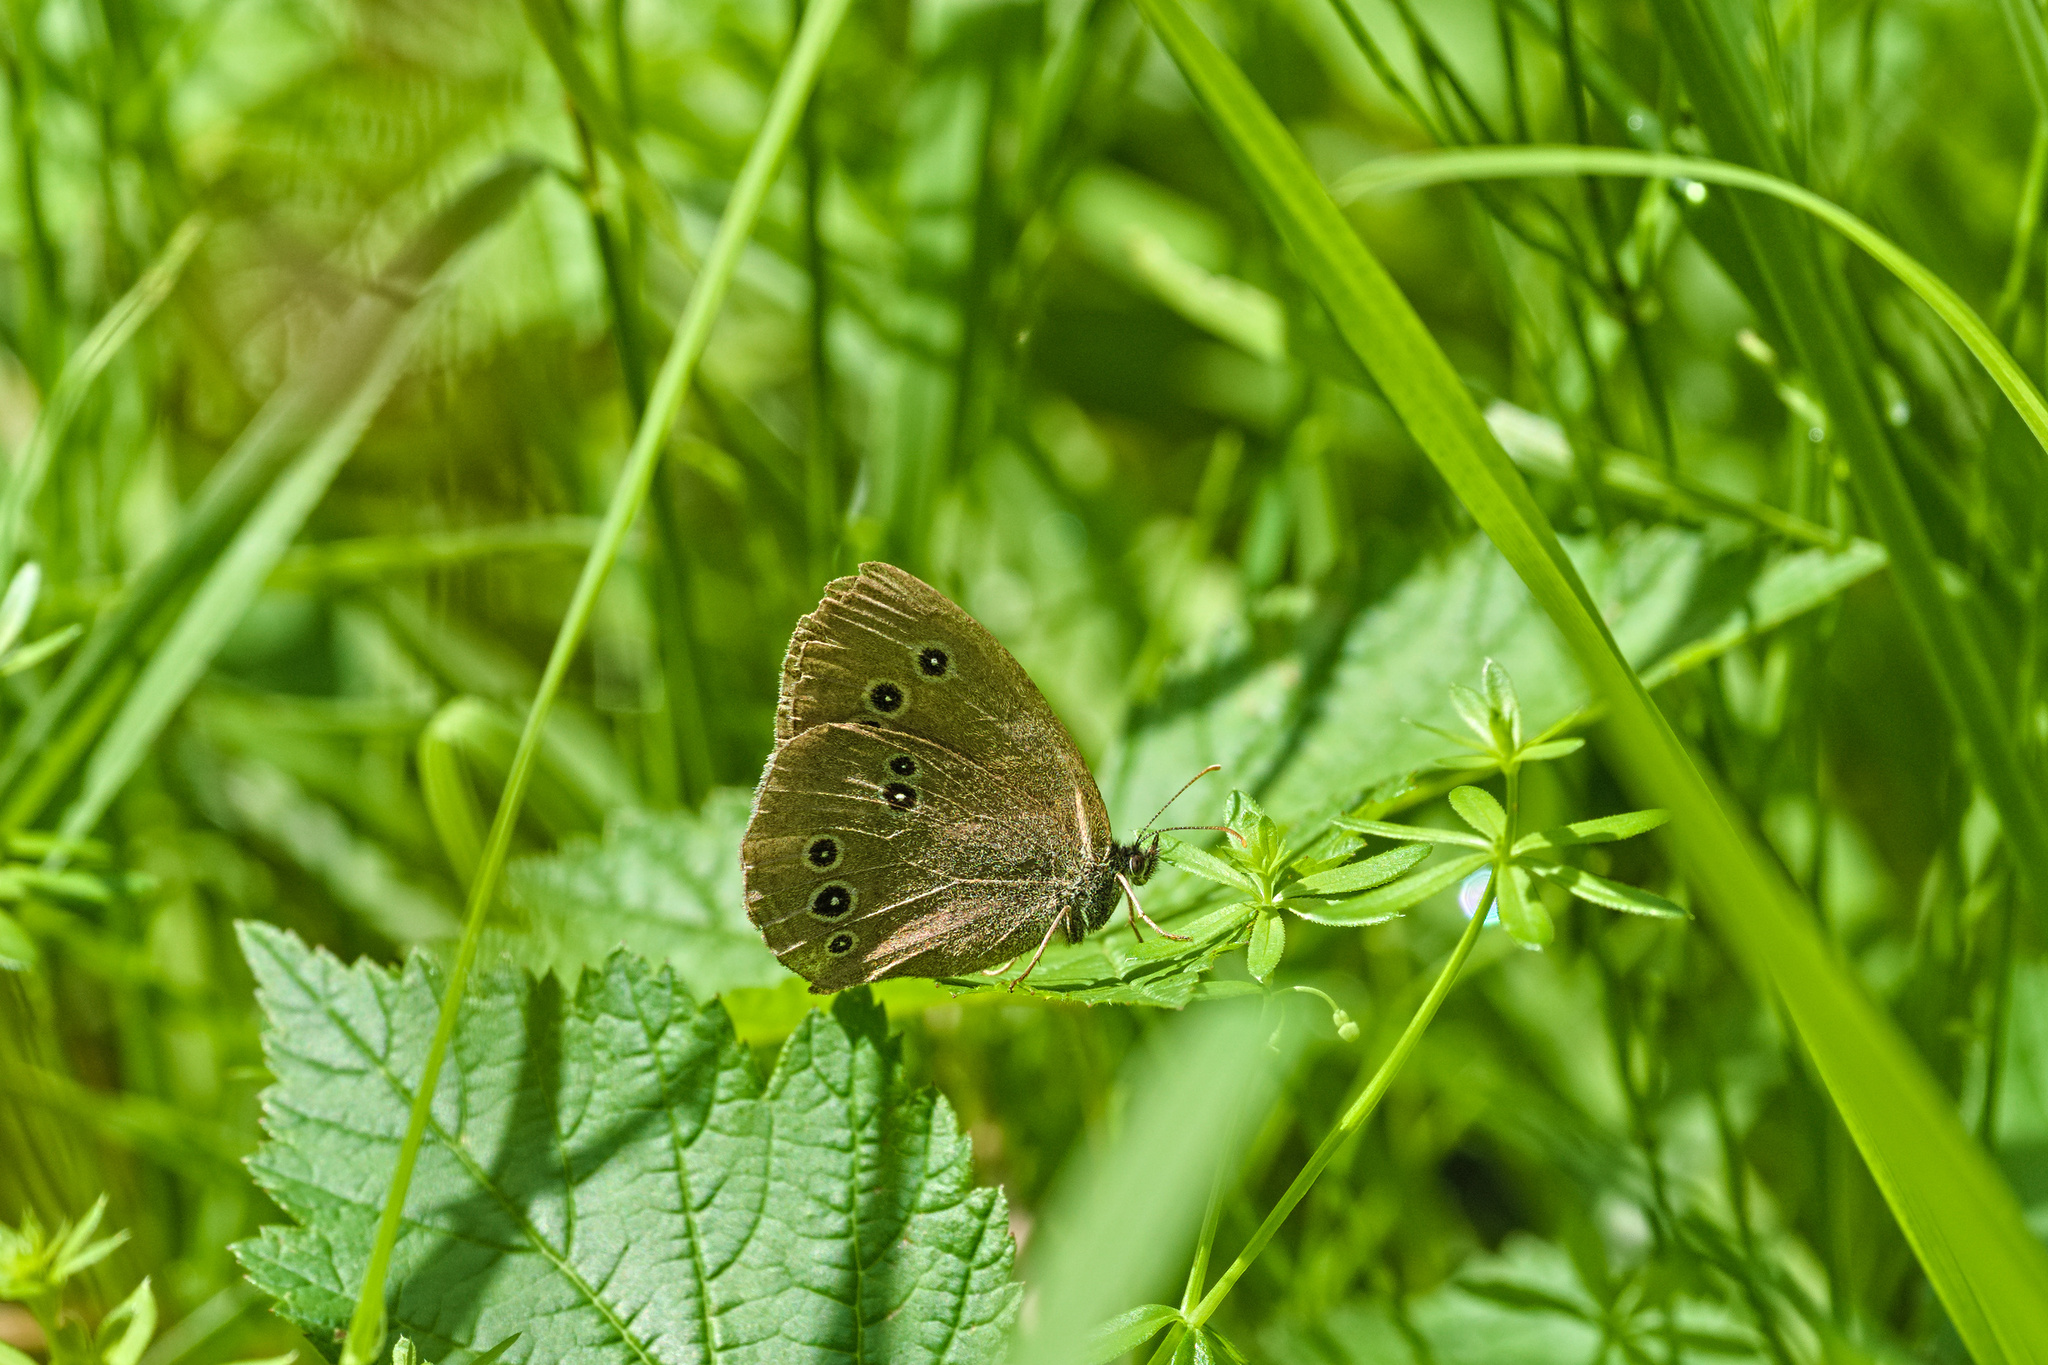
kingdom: Animalia
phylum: Arthropoda
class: Insecta
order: Lepidoptera
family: Nymphalidae
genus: Aphantopus
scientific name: Aphantopus hyperantus
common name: Ringlet
